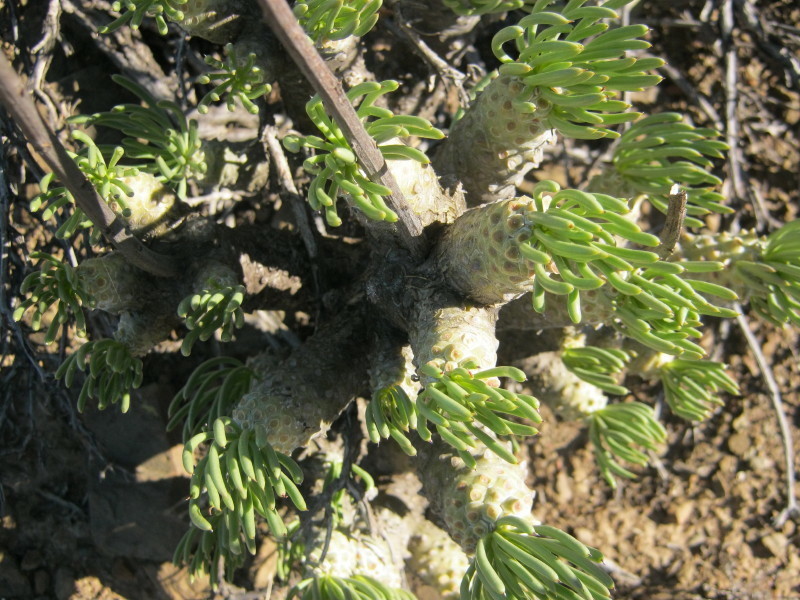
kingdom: Plantae
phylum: Tracheophyta
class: Magnoliopsida
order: Saxifragales
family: Crassulaceae
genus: Tylecodon
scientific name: Tylecodon cacaliodes
